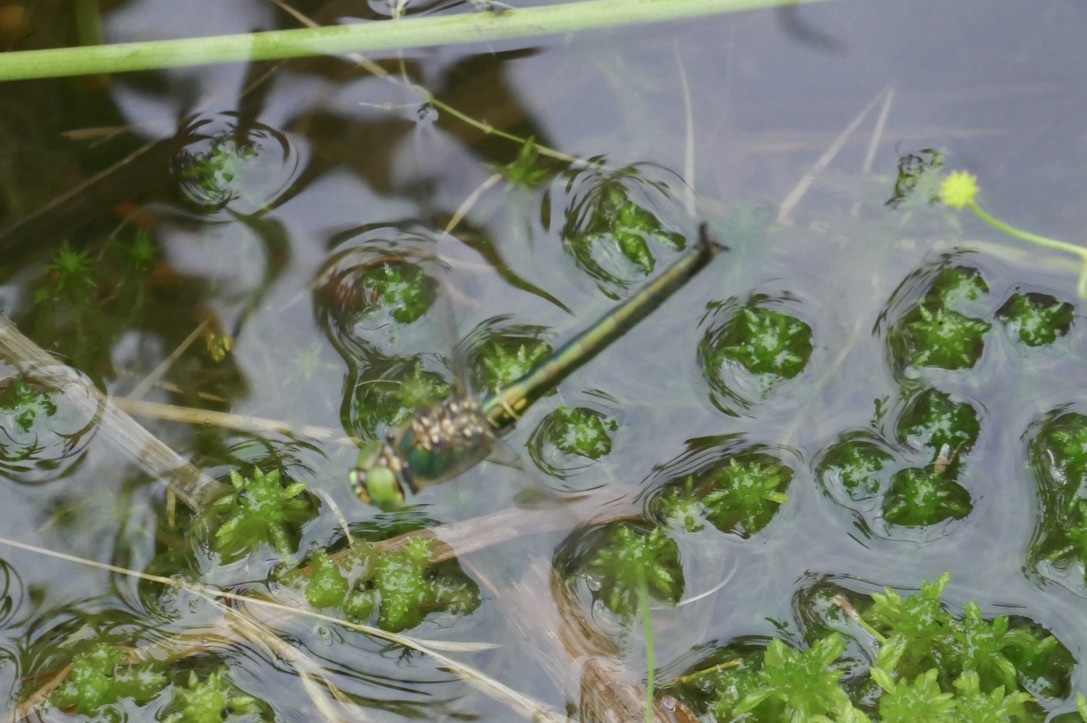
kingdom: Animalia
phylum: Arthropoda
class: Insecta
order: Odonata
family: Corduliidae
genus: Somatochlora
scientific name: Somatochlora metallica
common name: Brilliant emerald
